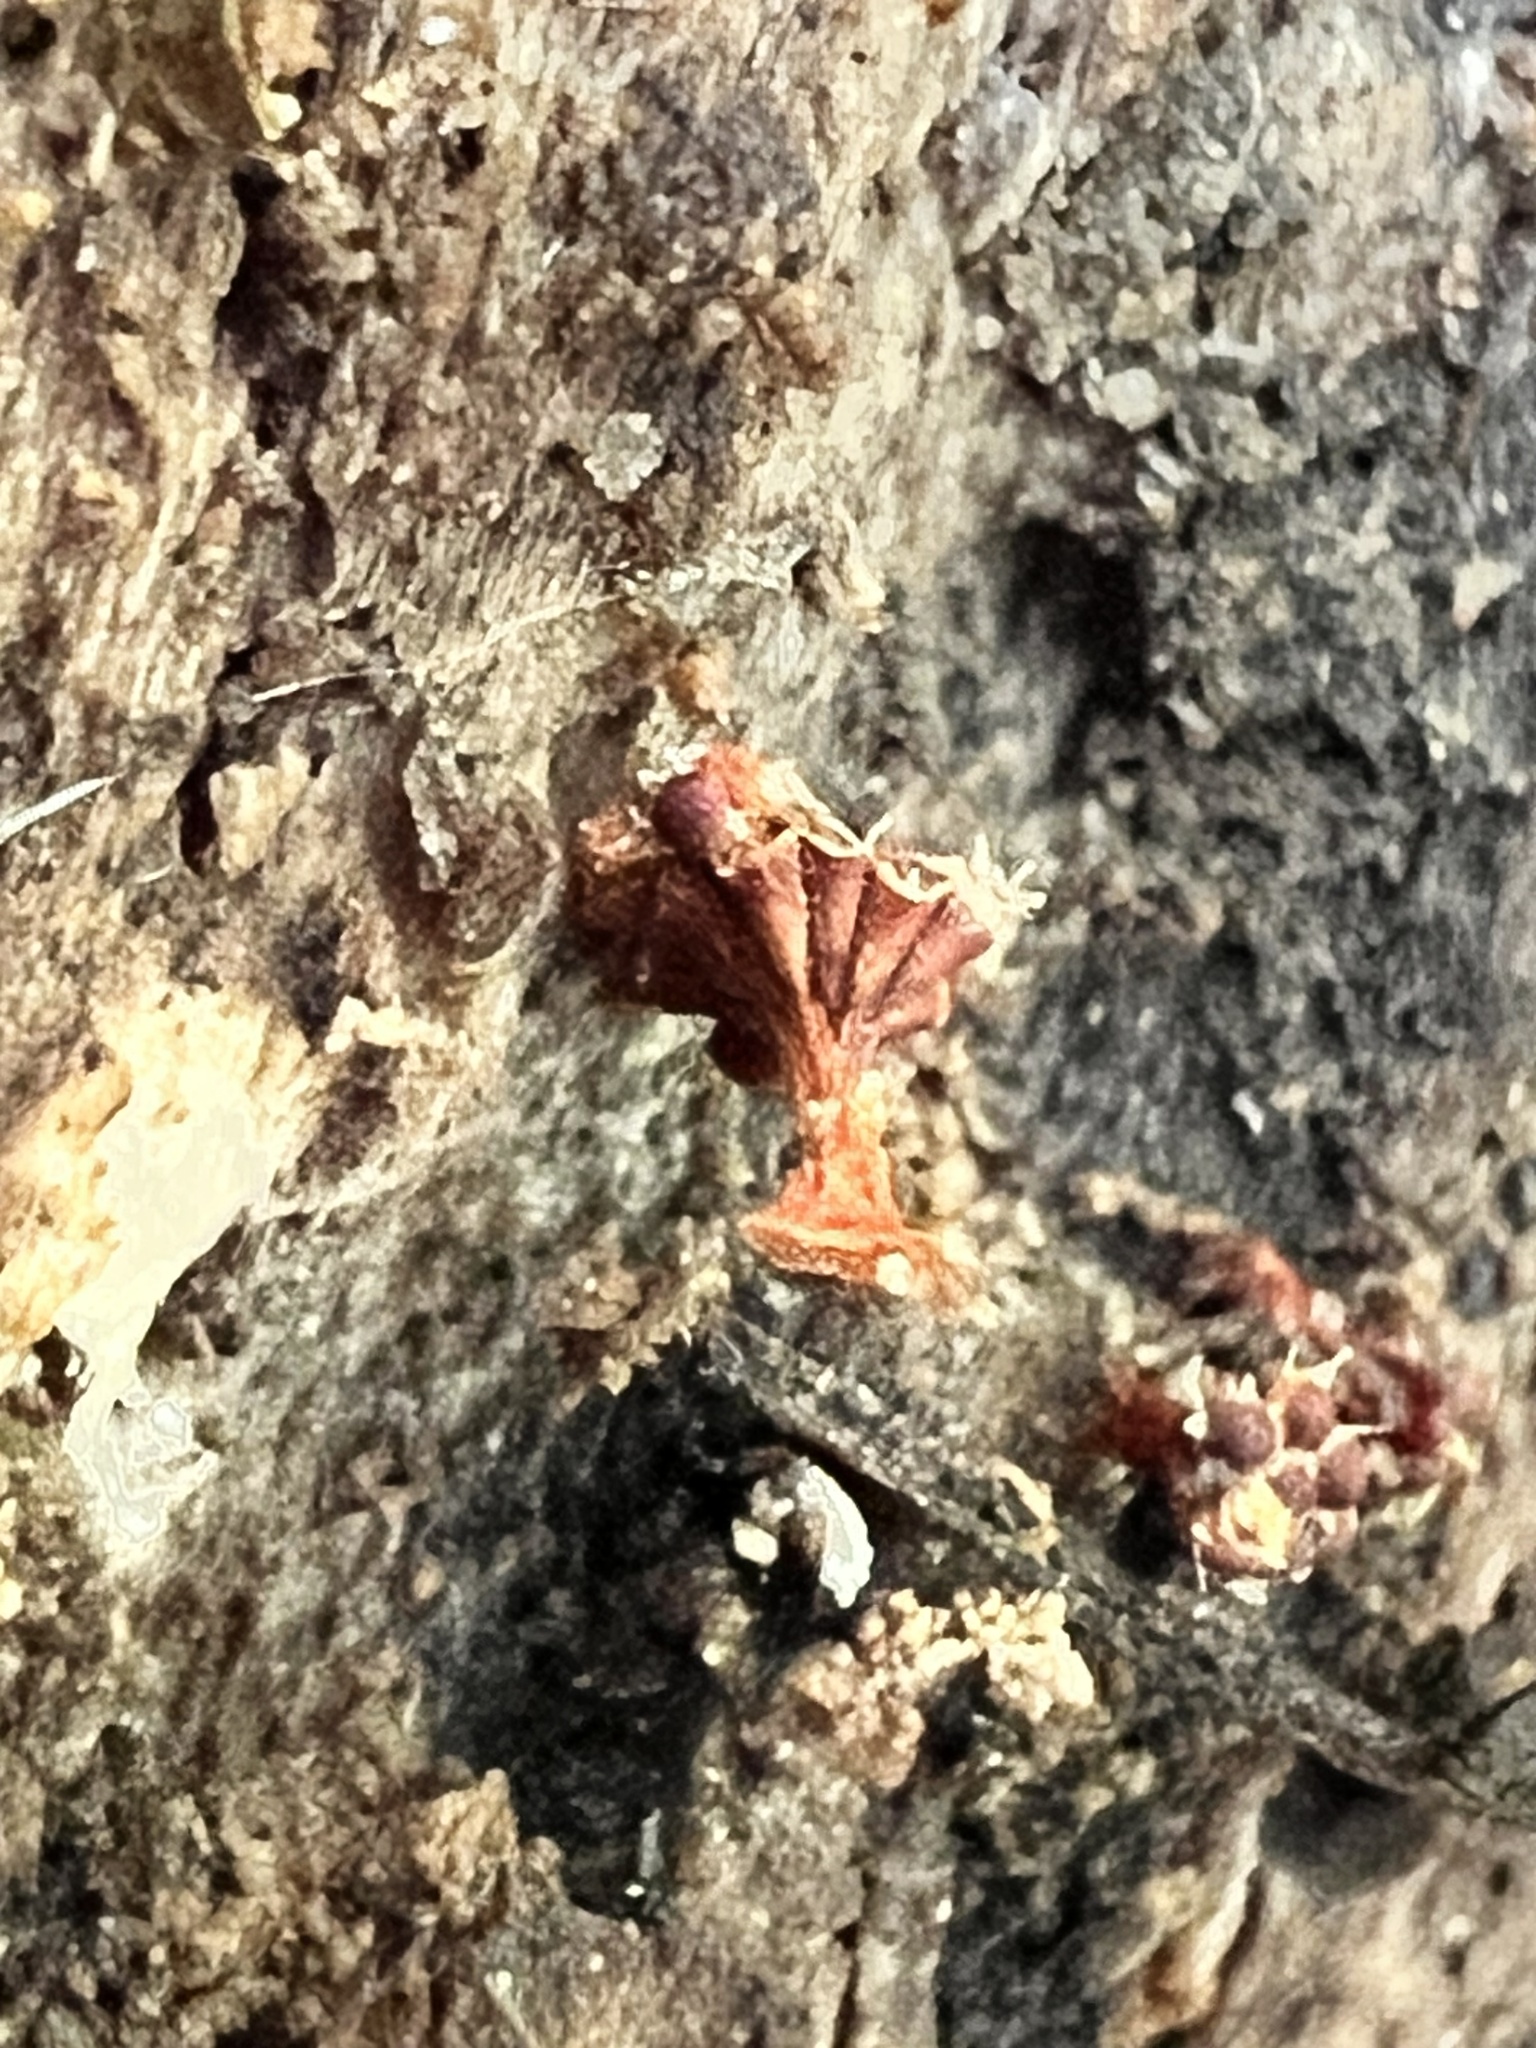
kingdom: Protozoa
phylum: Mycetozoa
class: Myxomycetes
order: Trichiales
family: Trichiaceae
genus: Metatrichia
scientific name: Metatrichia vesparia
